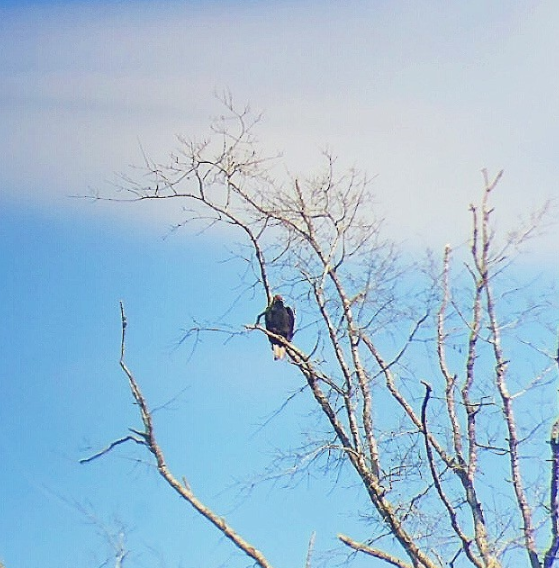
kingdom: Animalia
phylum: Chordata
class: Aves
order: Accipitriformes
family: Cathartidae
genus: Cathartes
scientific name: Cathartes aura
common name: Turkey vulture
